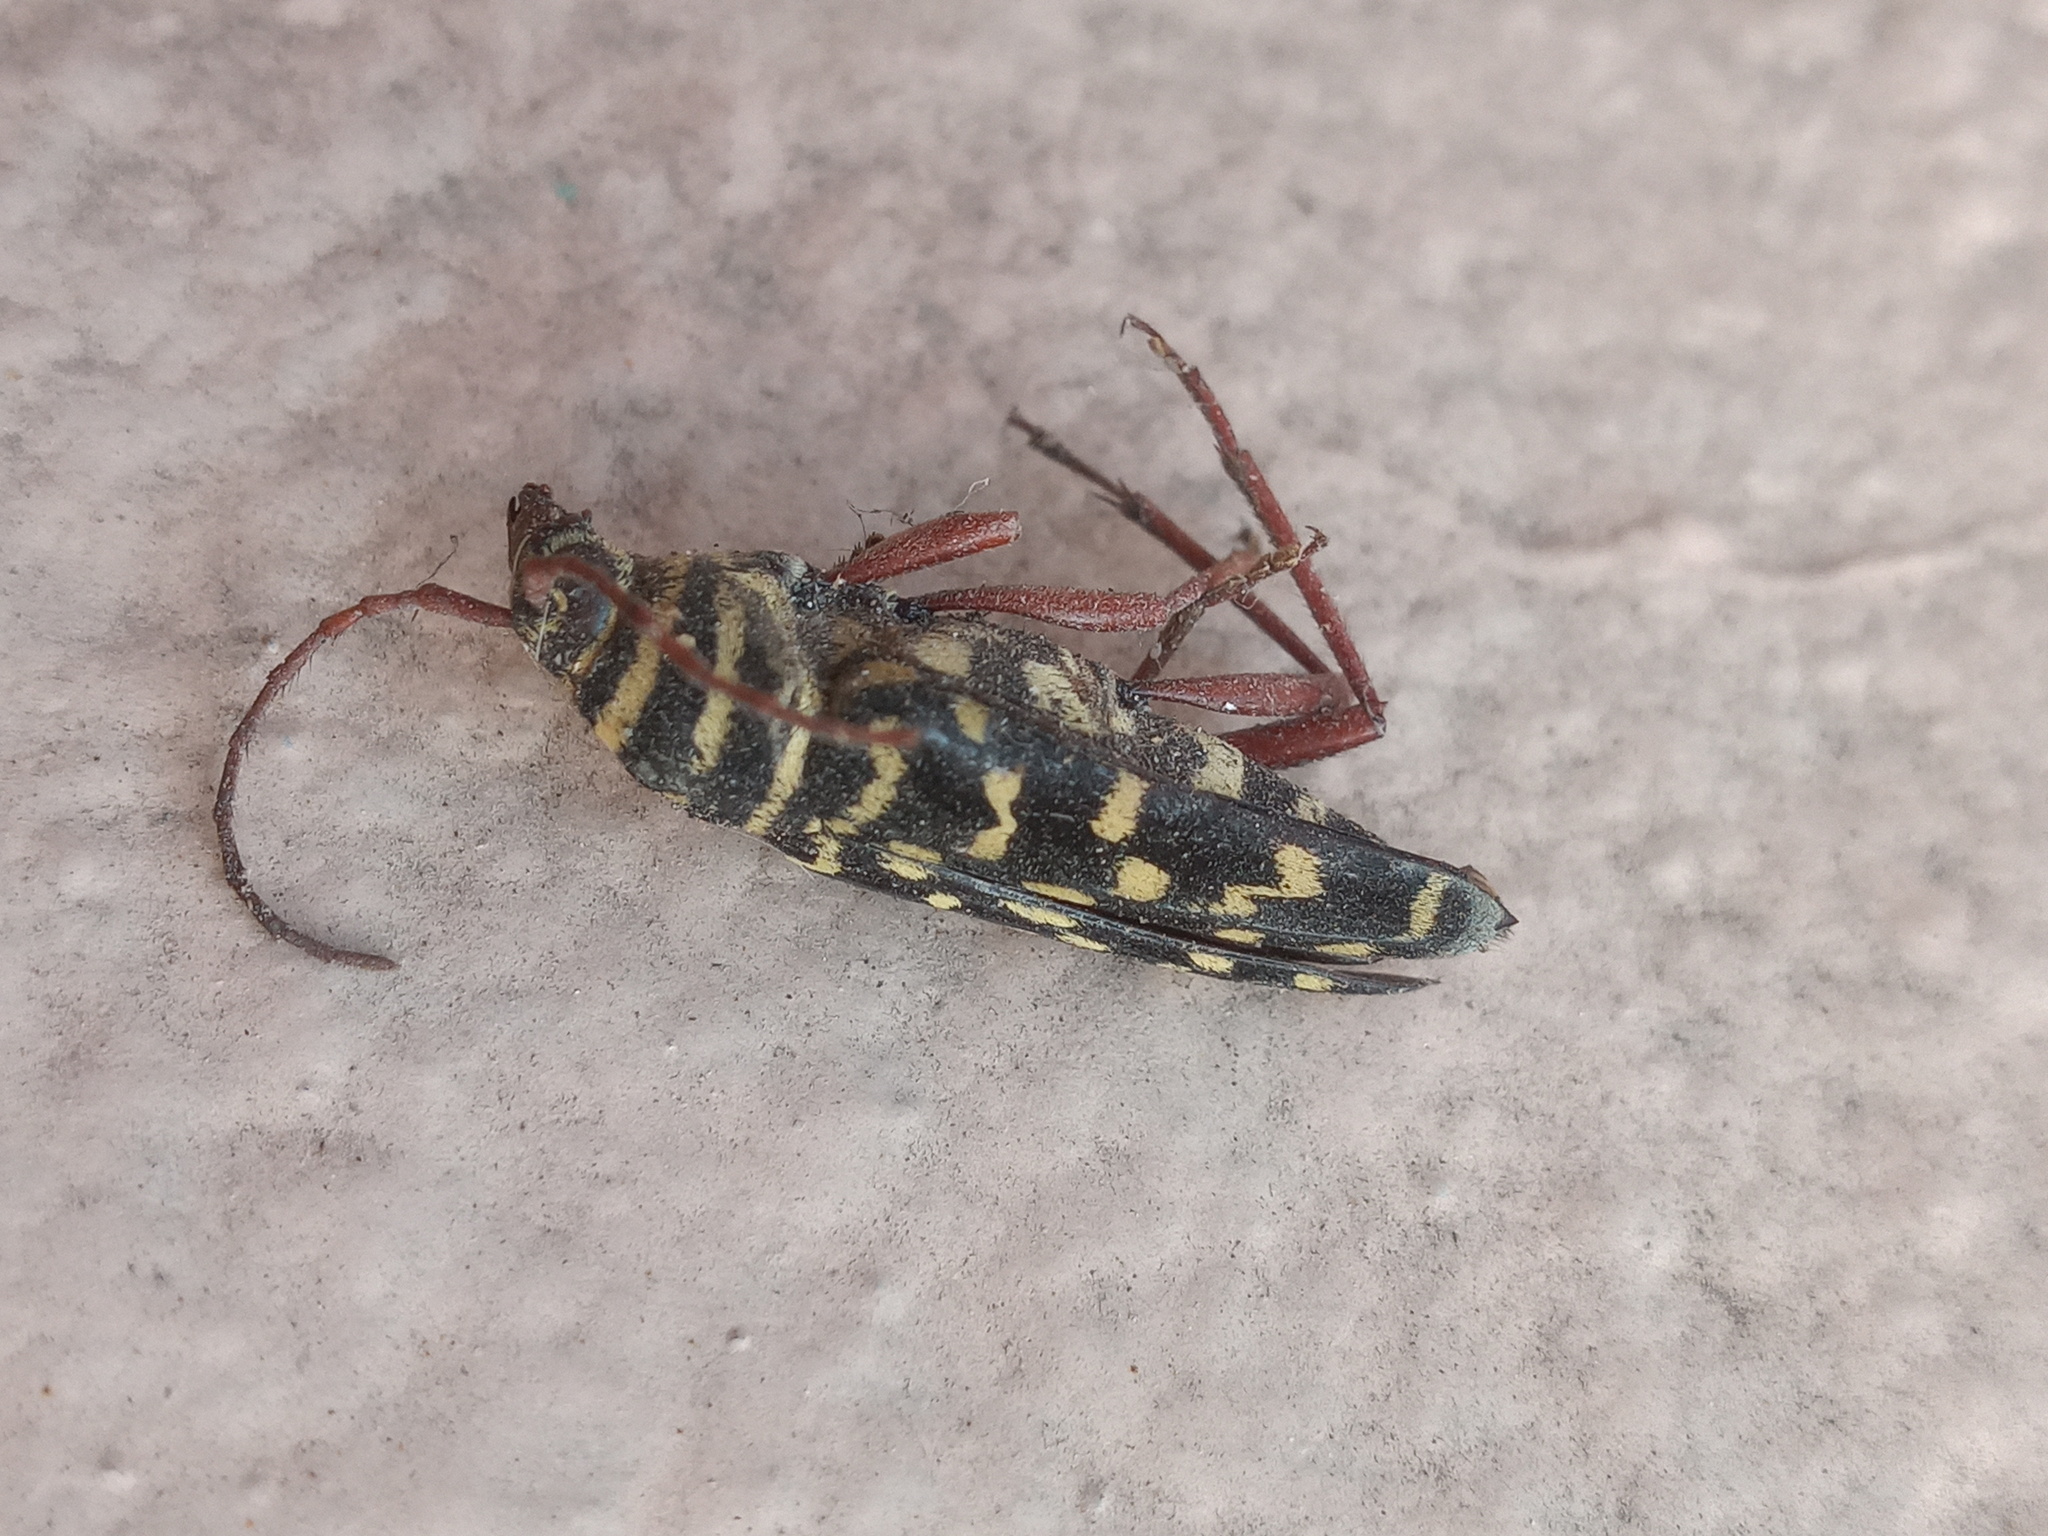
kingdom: Animalia
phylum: Arthropoda
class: Insecta
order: Coleoptera
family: Cerambycidae
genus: Placosternus
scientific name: Placosternus erythropus
